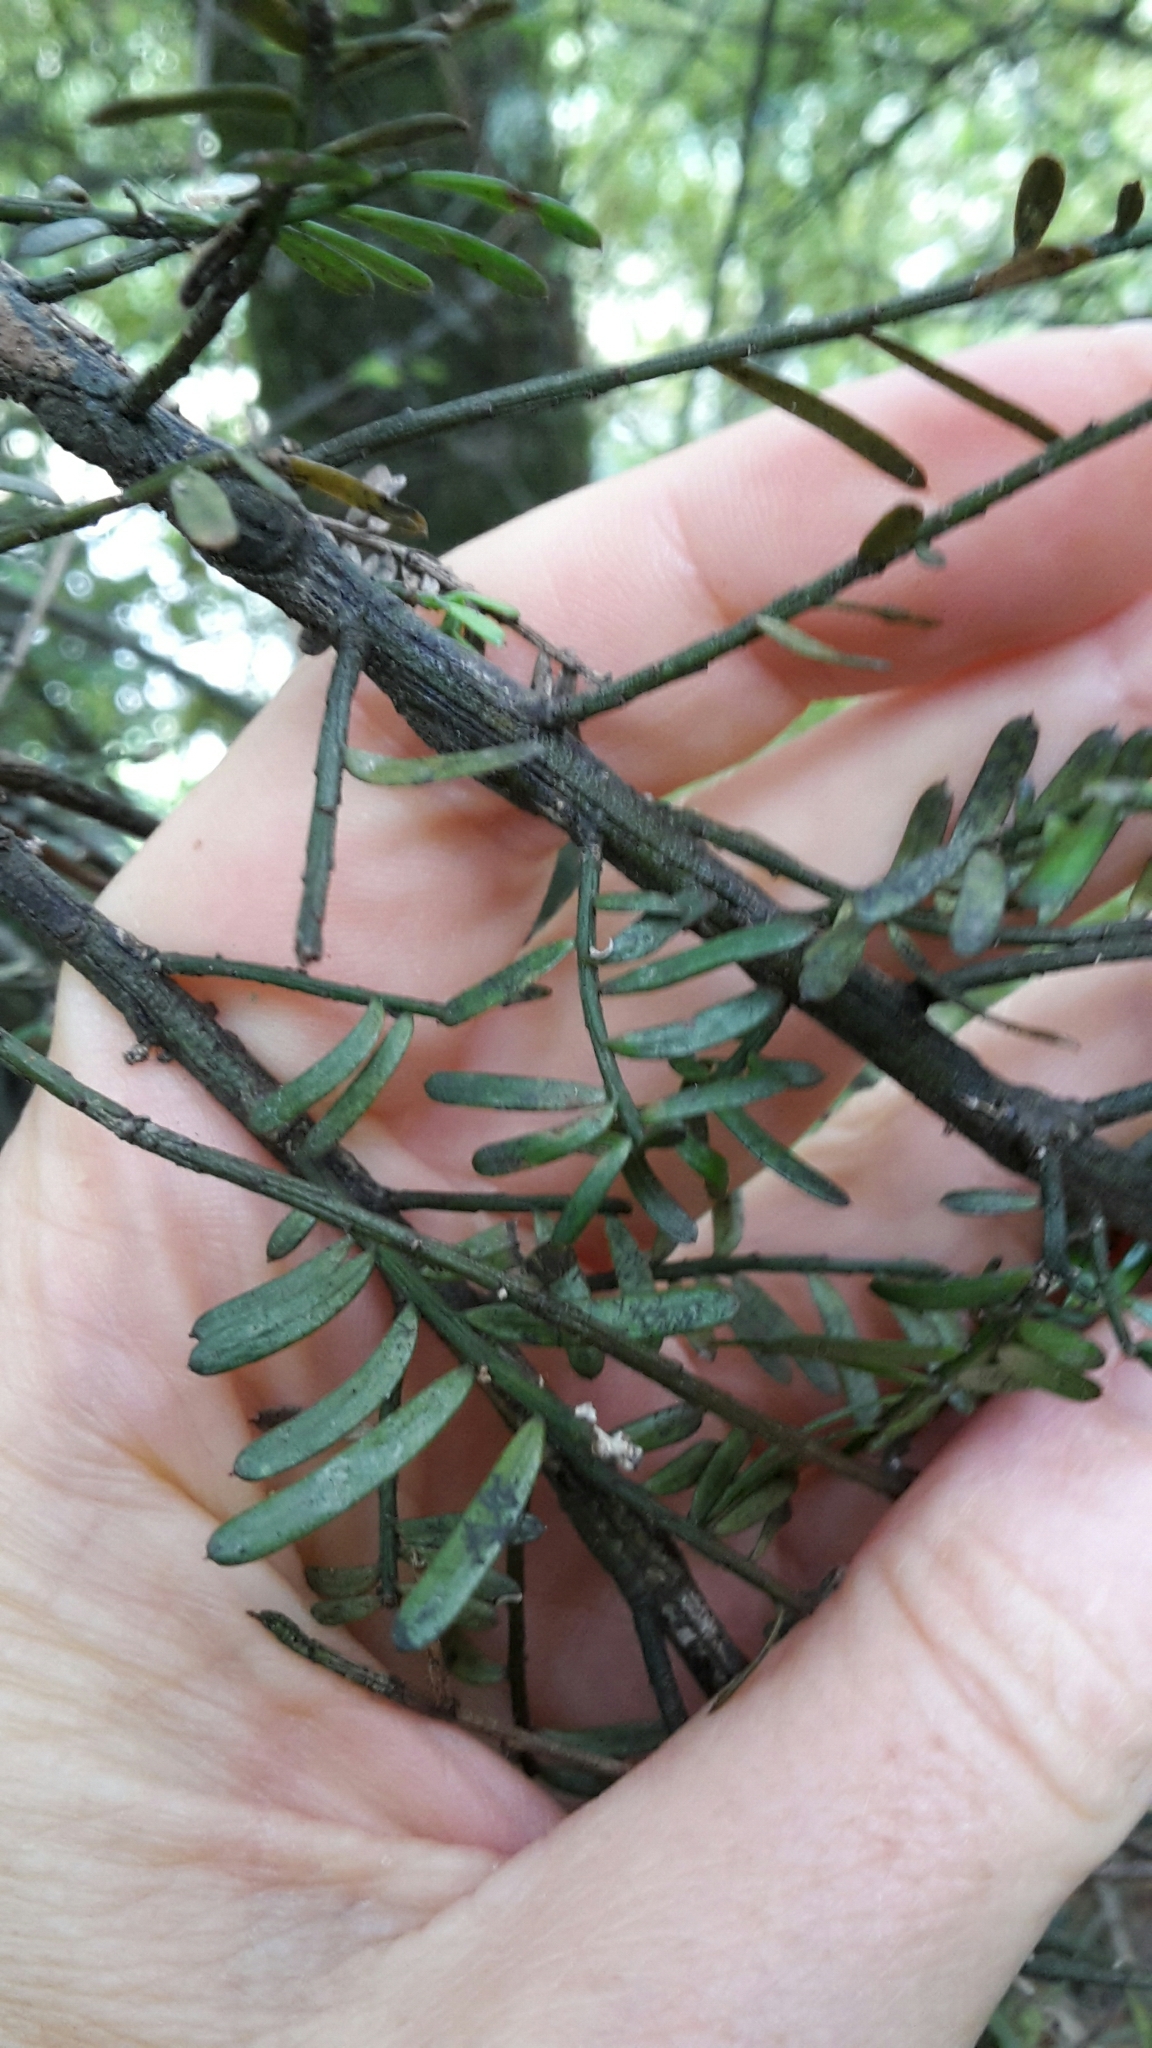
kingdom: Plantae
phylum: Tracheophyta
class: Pinopsida
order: Pinales
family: Podocarpaceae
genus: Prumnopitys
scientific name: Prumnopitys taxifolia
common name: Matai
